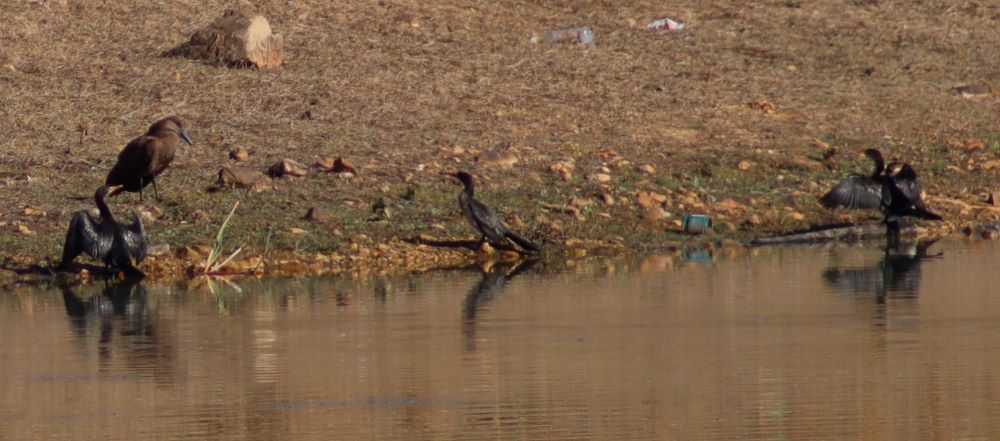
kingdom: Animalia
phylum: Chordata
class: Aves
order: Pelecaniformes
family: Scopidae
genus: Scopus
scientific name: Scopus umbretta
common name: Hamerkop
